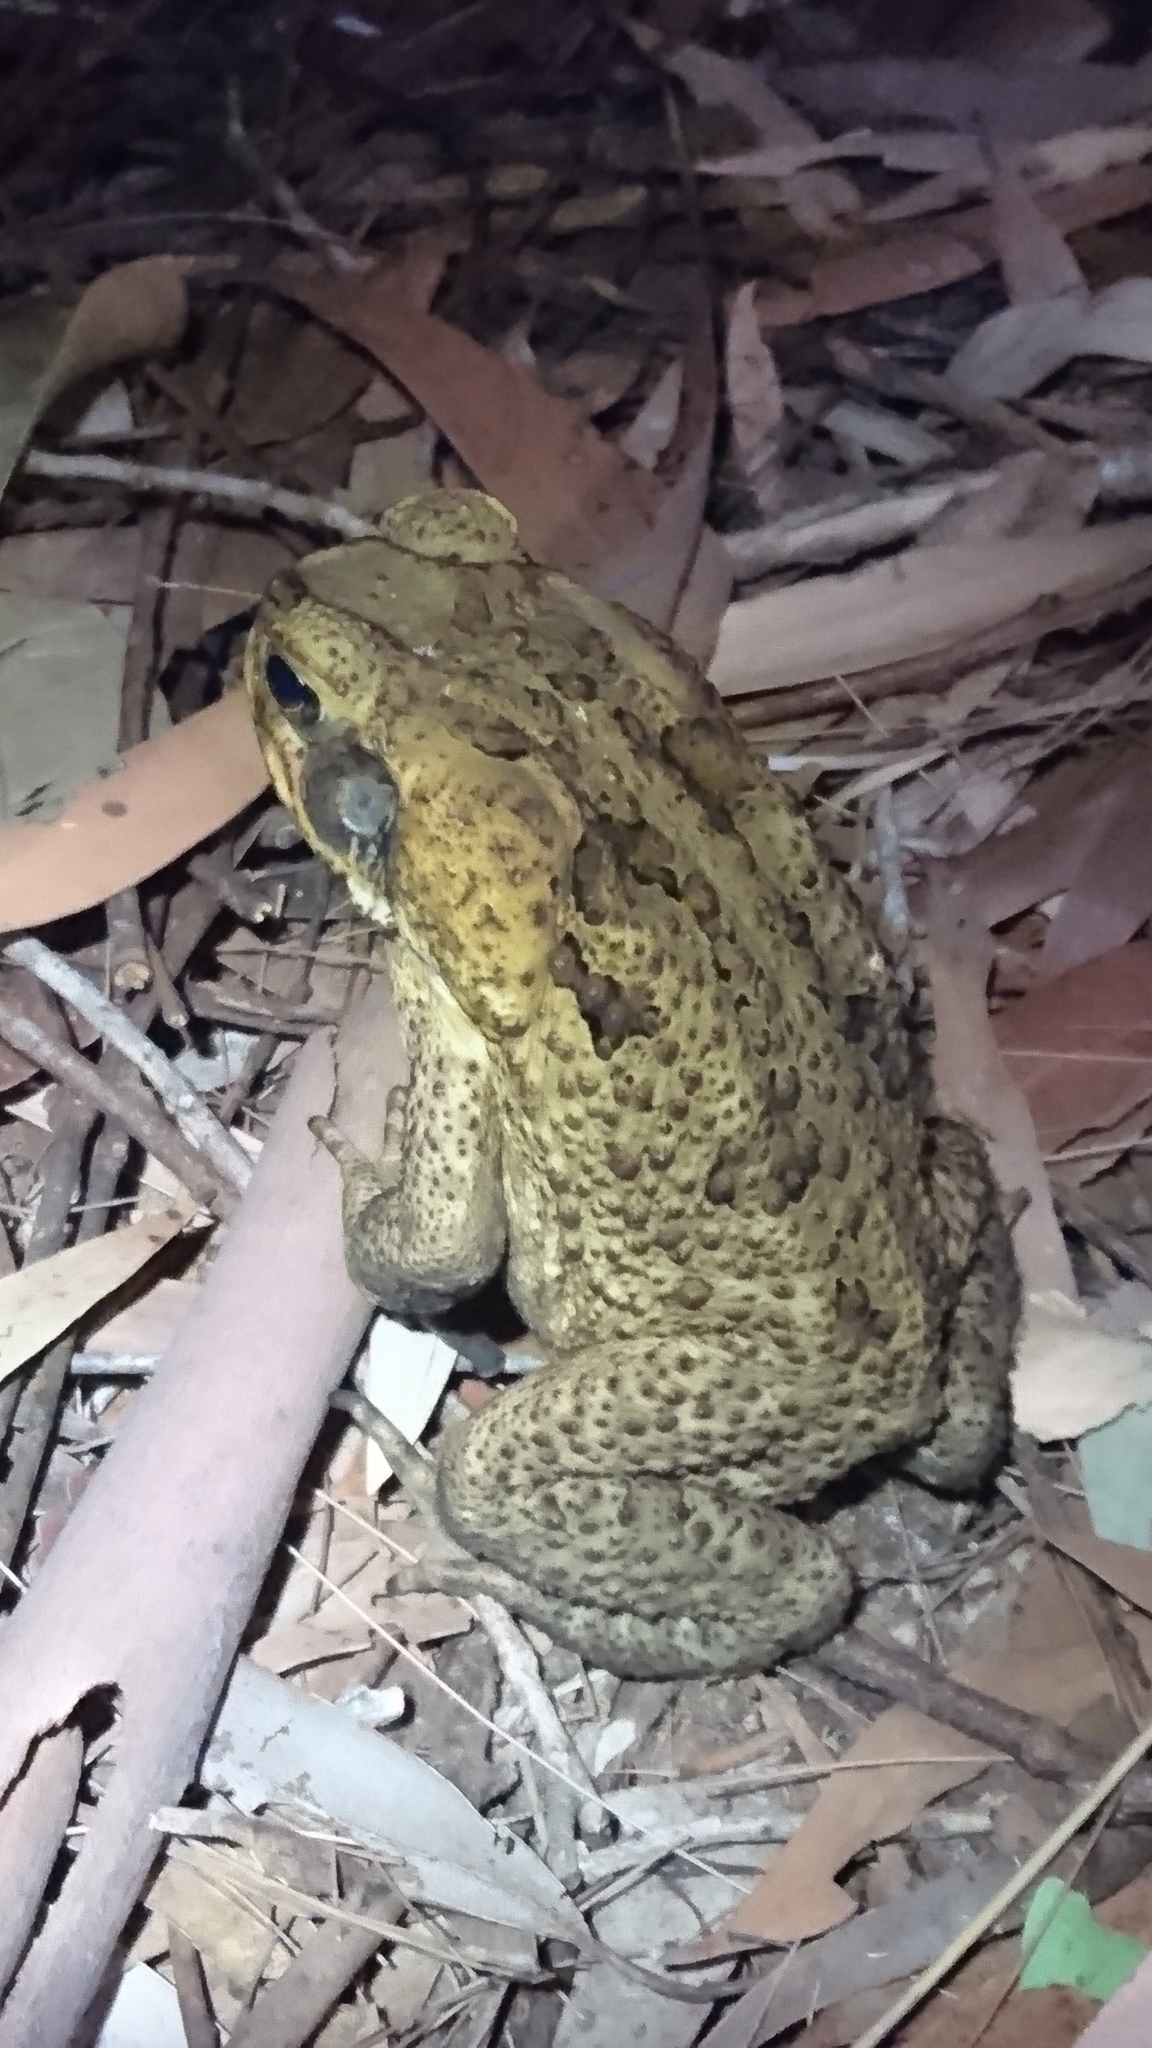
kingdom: Animalia
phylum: Chordata
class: Amphibia
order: Anura
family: Bufonidae
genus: Rhinella
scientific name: Rhinella marina
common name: Cane toad
